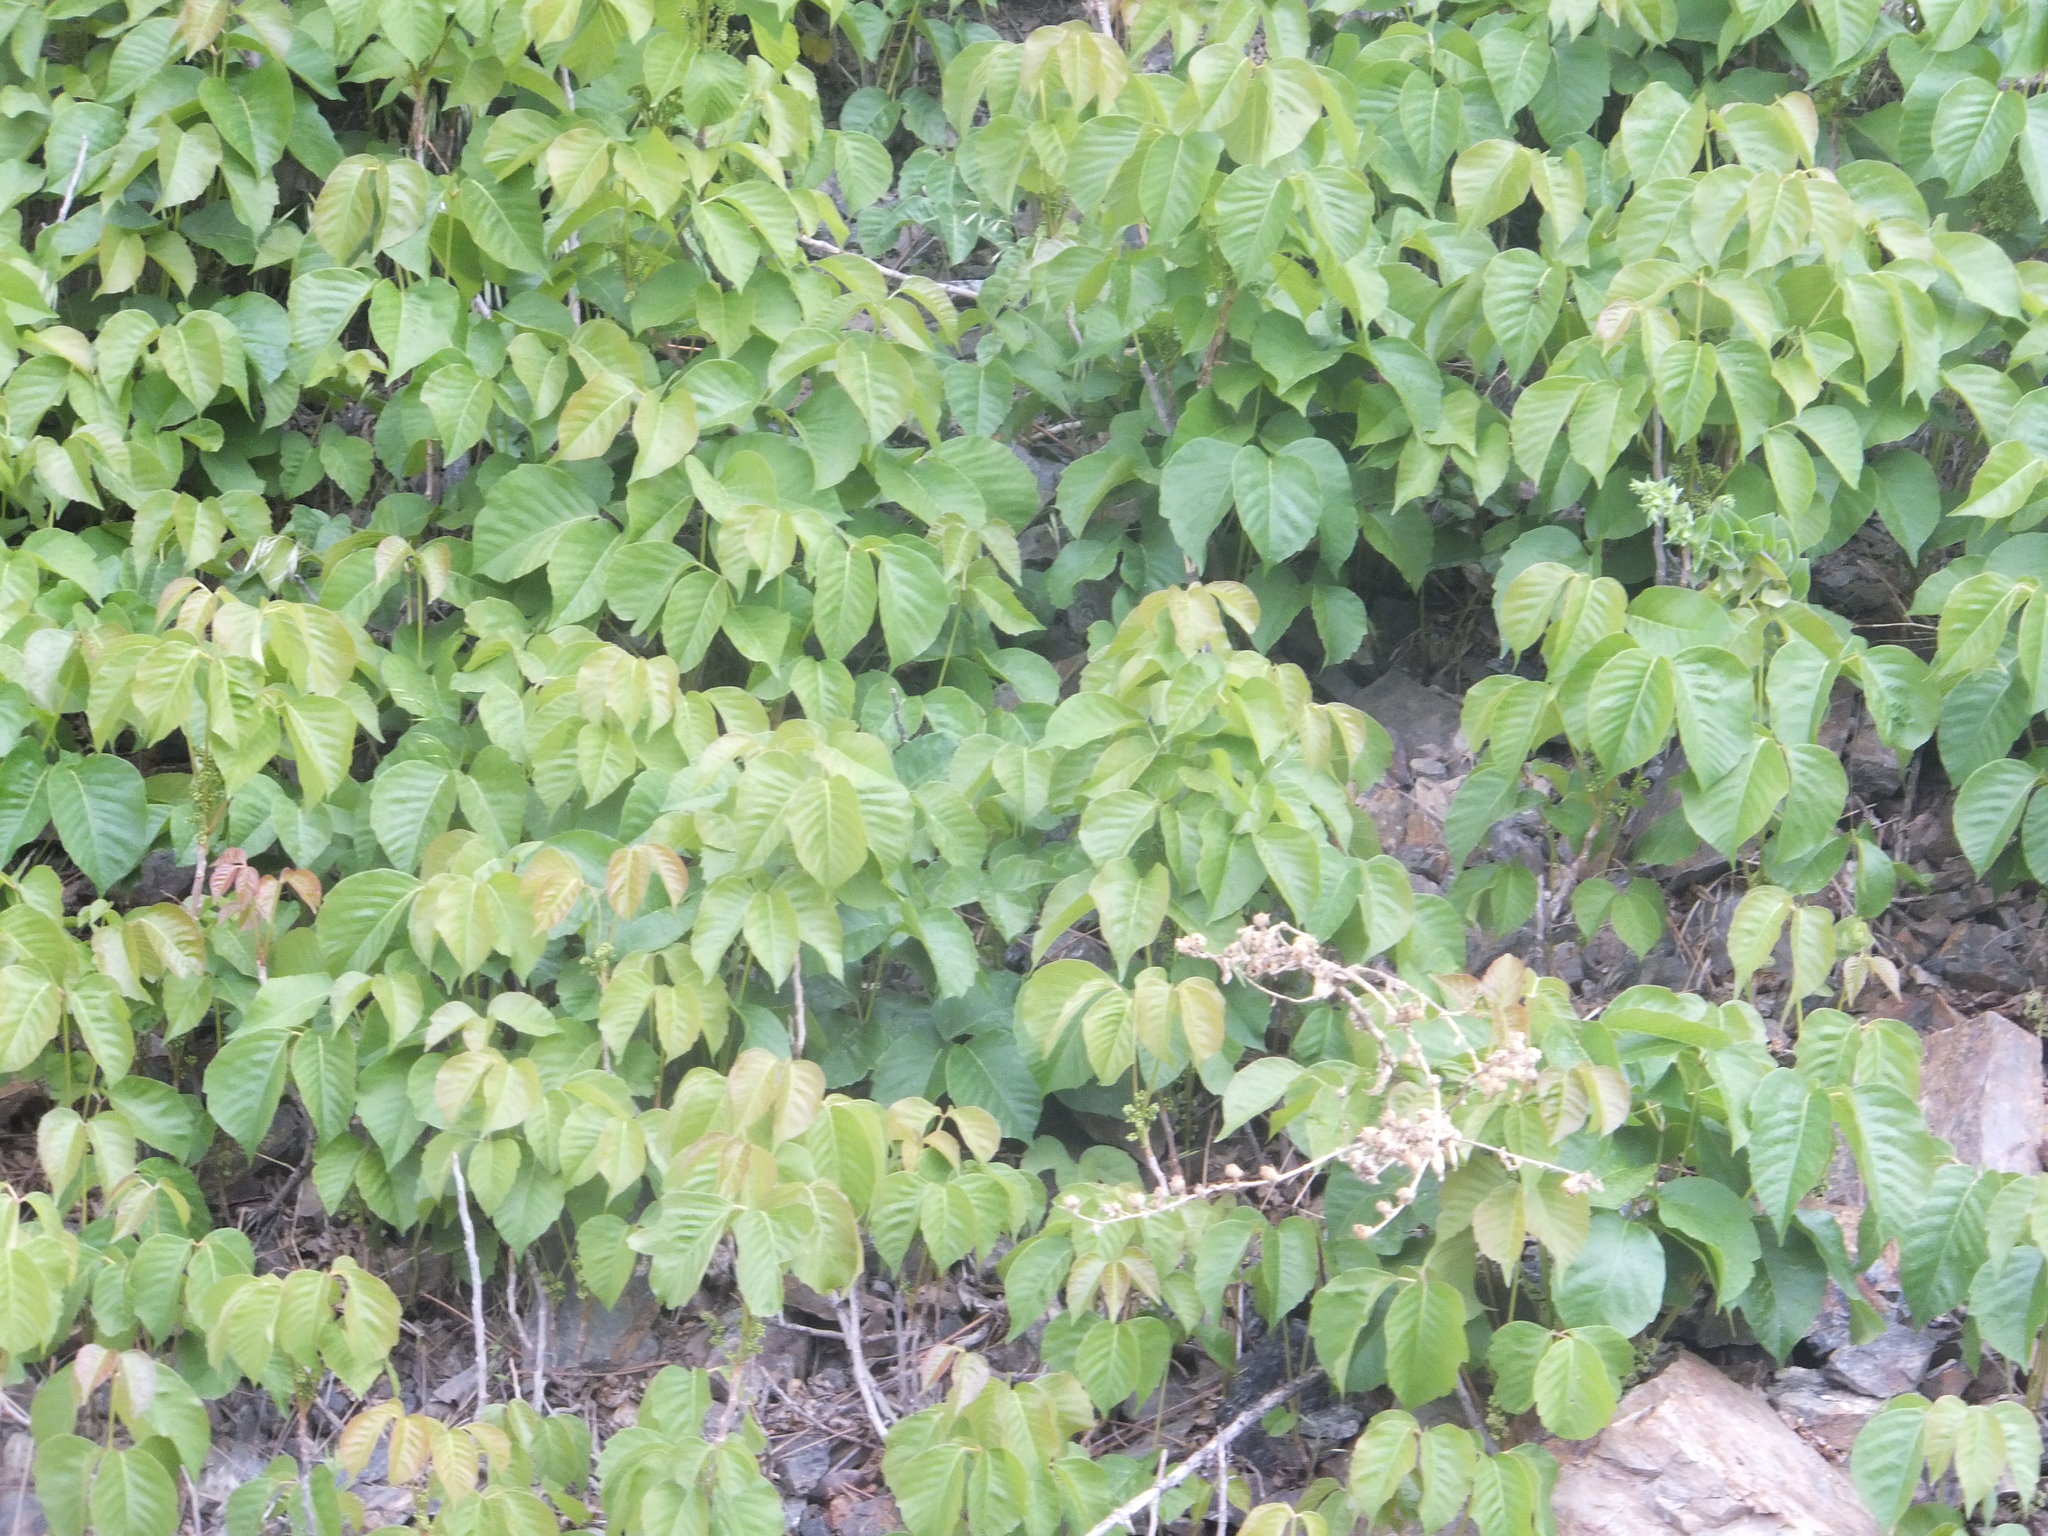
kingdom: Plantae
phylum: Tracheophyta
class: Magnoliopsida
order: Sapindales
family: Anacardiaceae
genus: Toxicodendron
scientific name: Toxicodendron rydbergii
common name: Rydberg's poison-ivy
